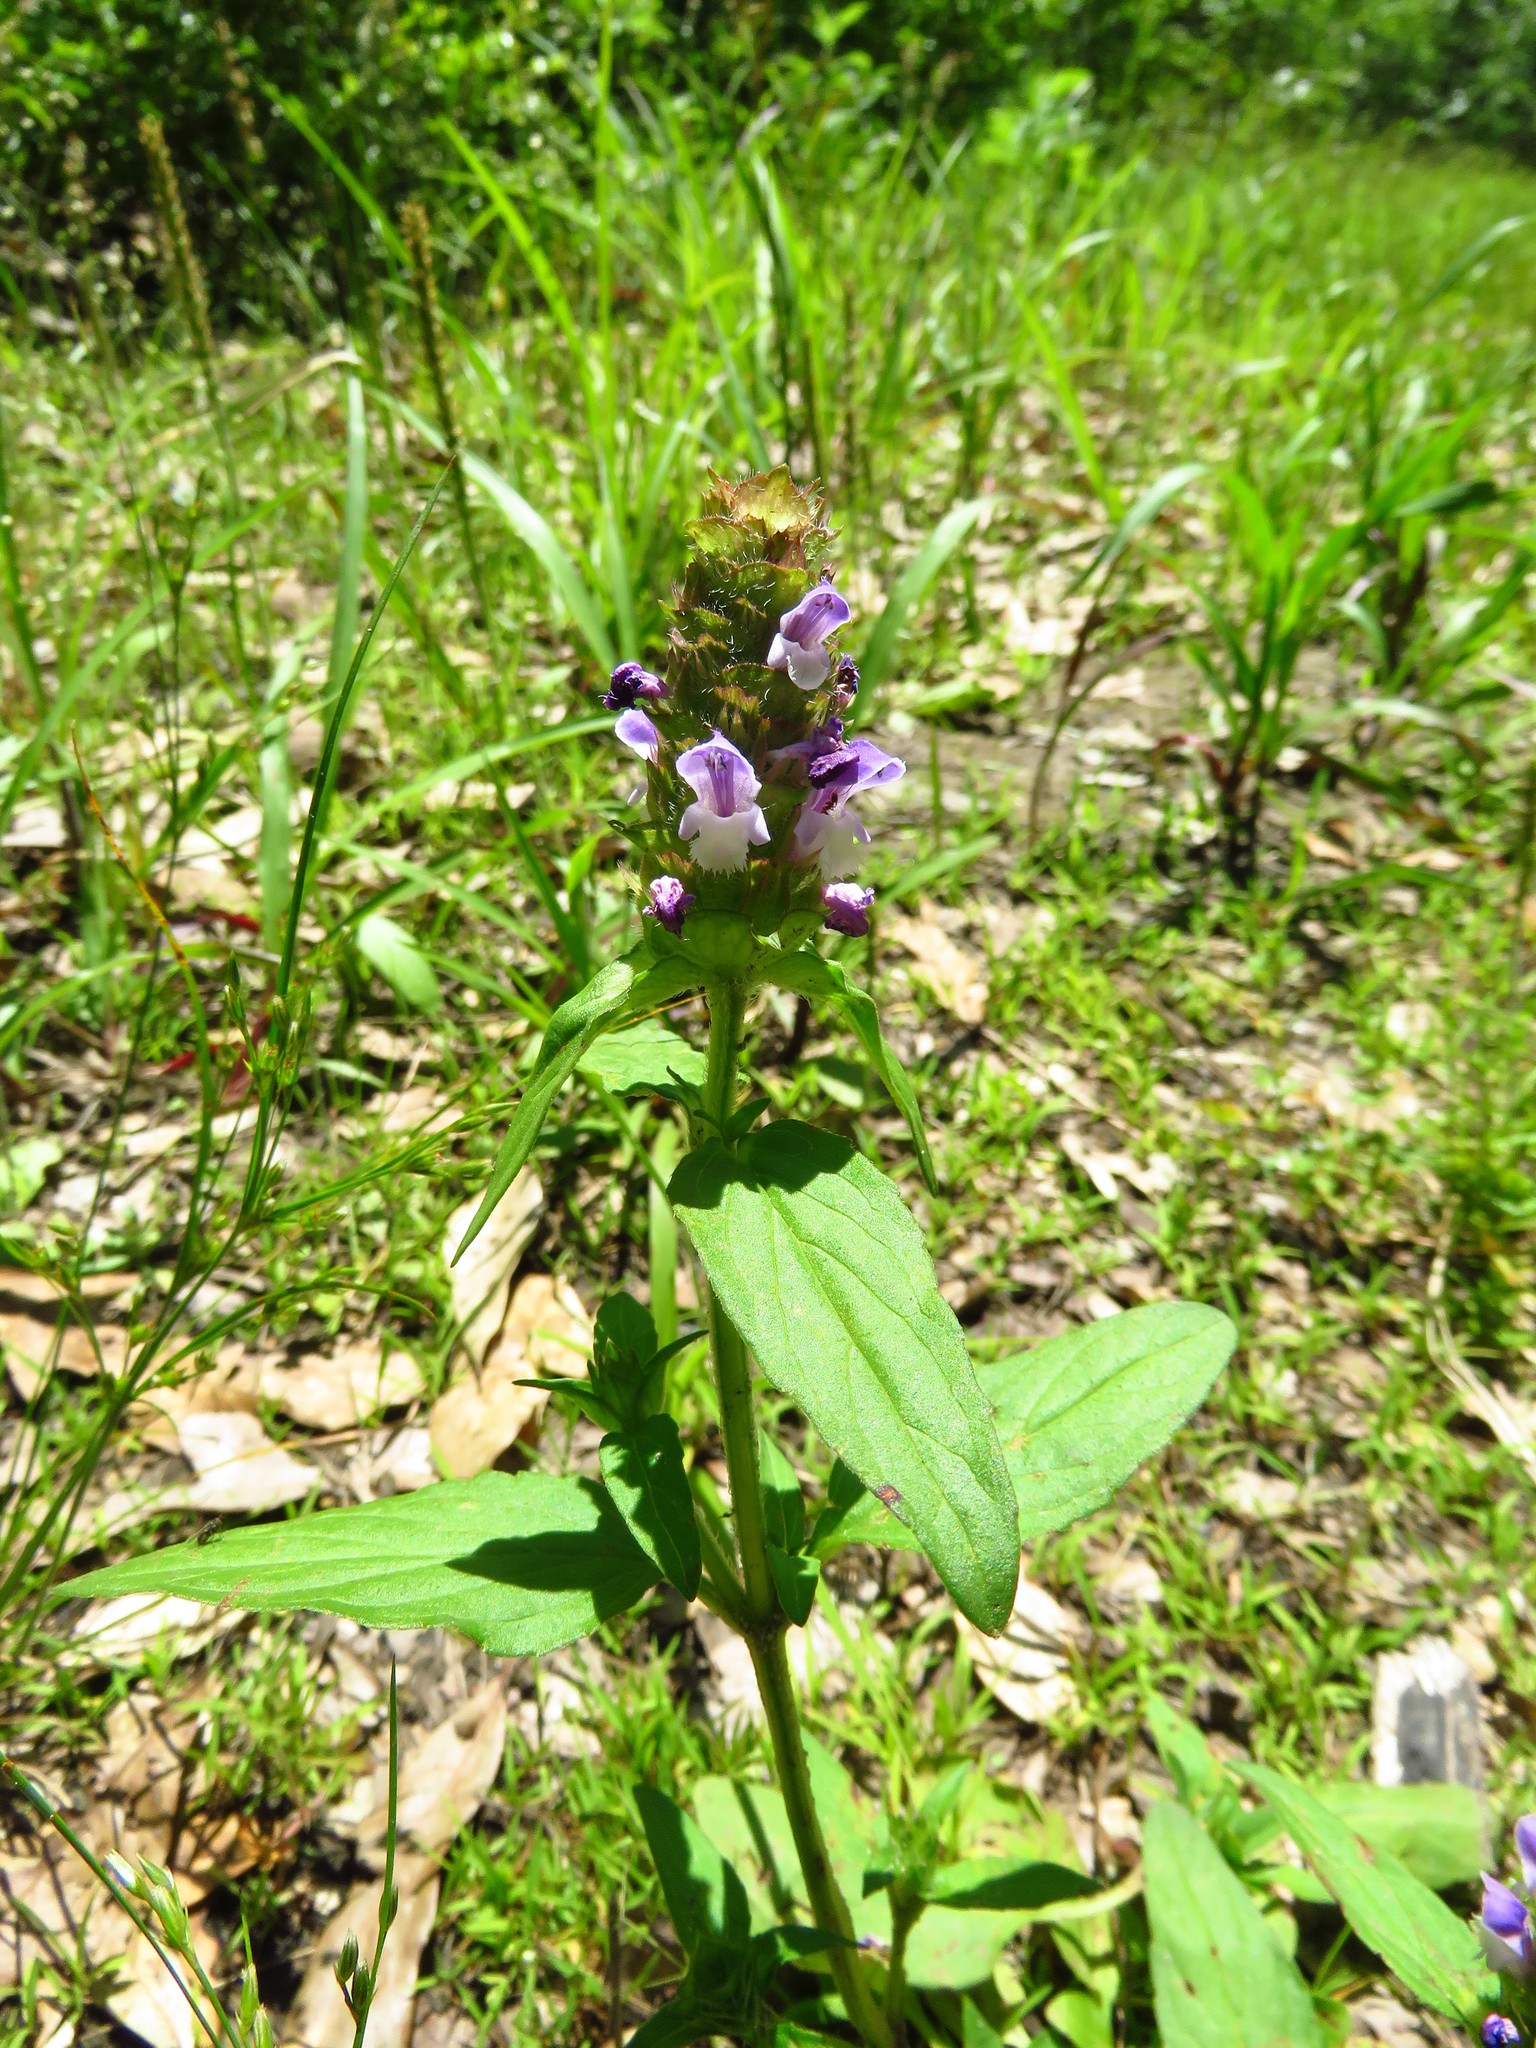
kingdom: Plantae
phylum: Tracheophyta
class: Magnoliopsida
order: Lamiales
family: Lamiaceae
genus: Prunella
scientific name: Prunella vulgaris
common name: Heal-all
